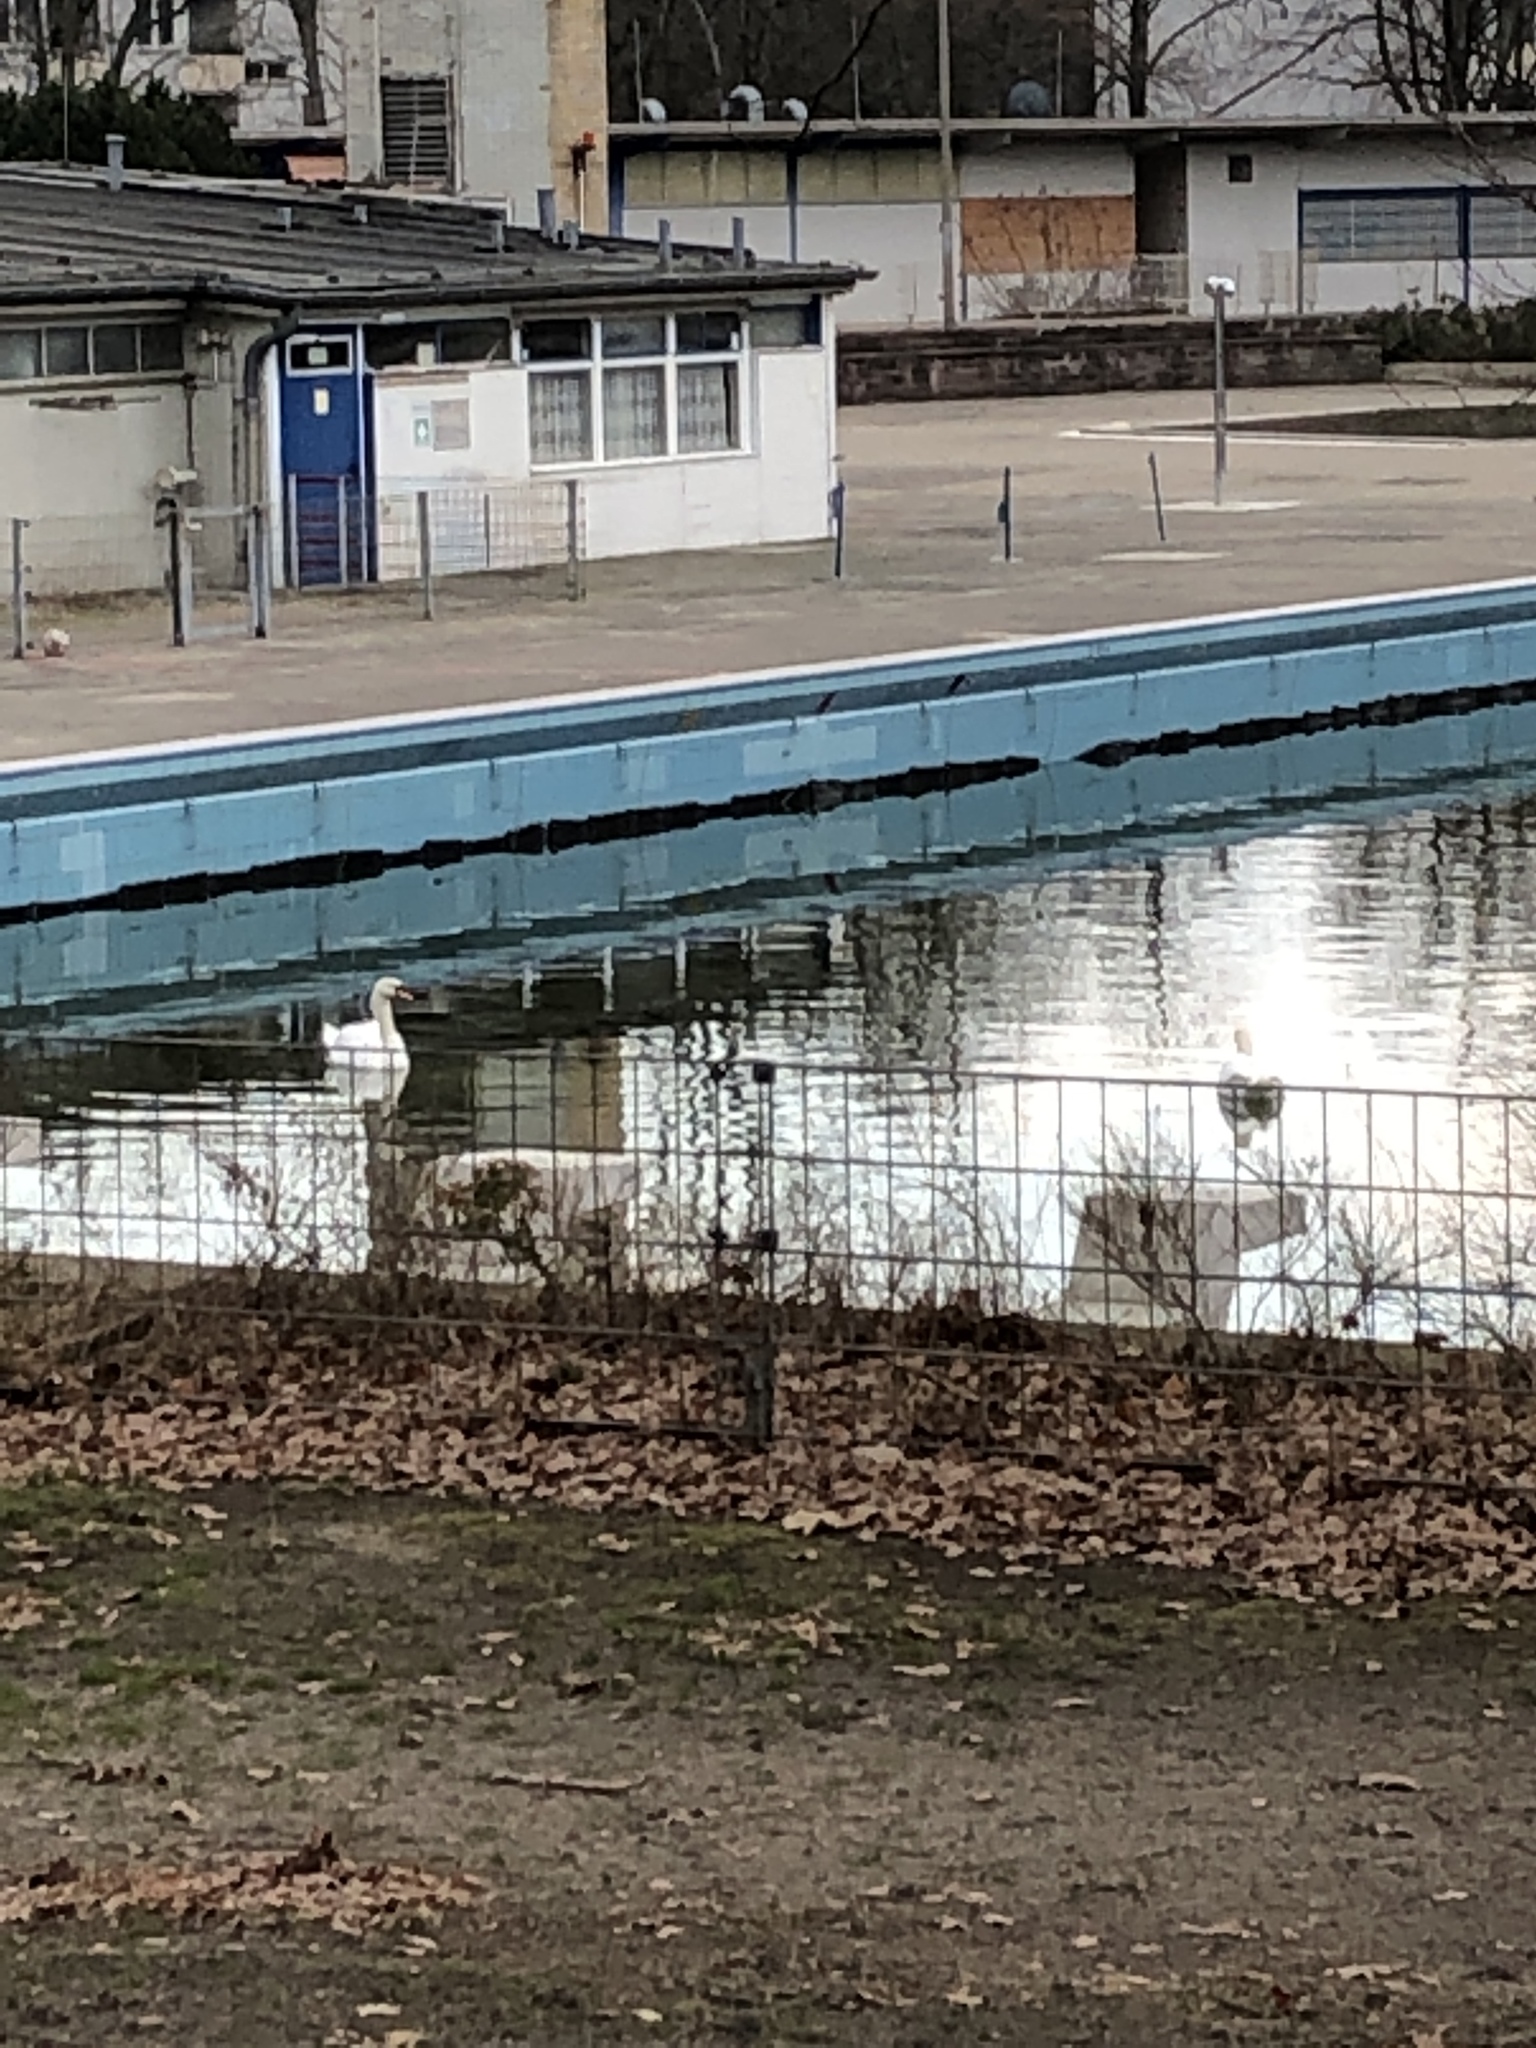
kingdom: Animalia
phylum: Chordata
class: Aves
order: Anseriformes
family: Anatidae
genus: Cygnus
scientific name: Cygnus olor
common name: Mute swan
